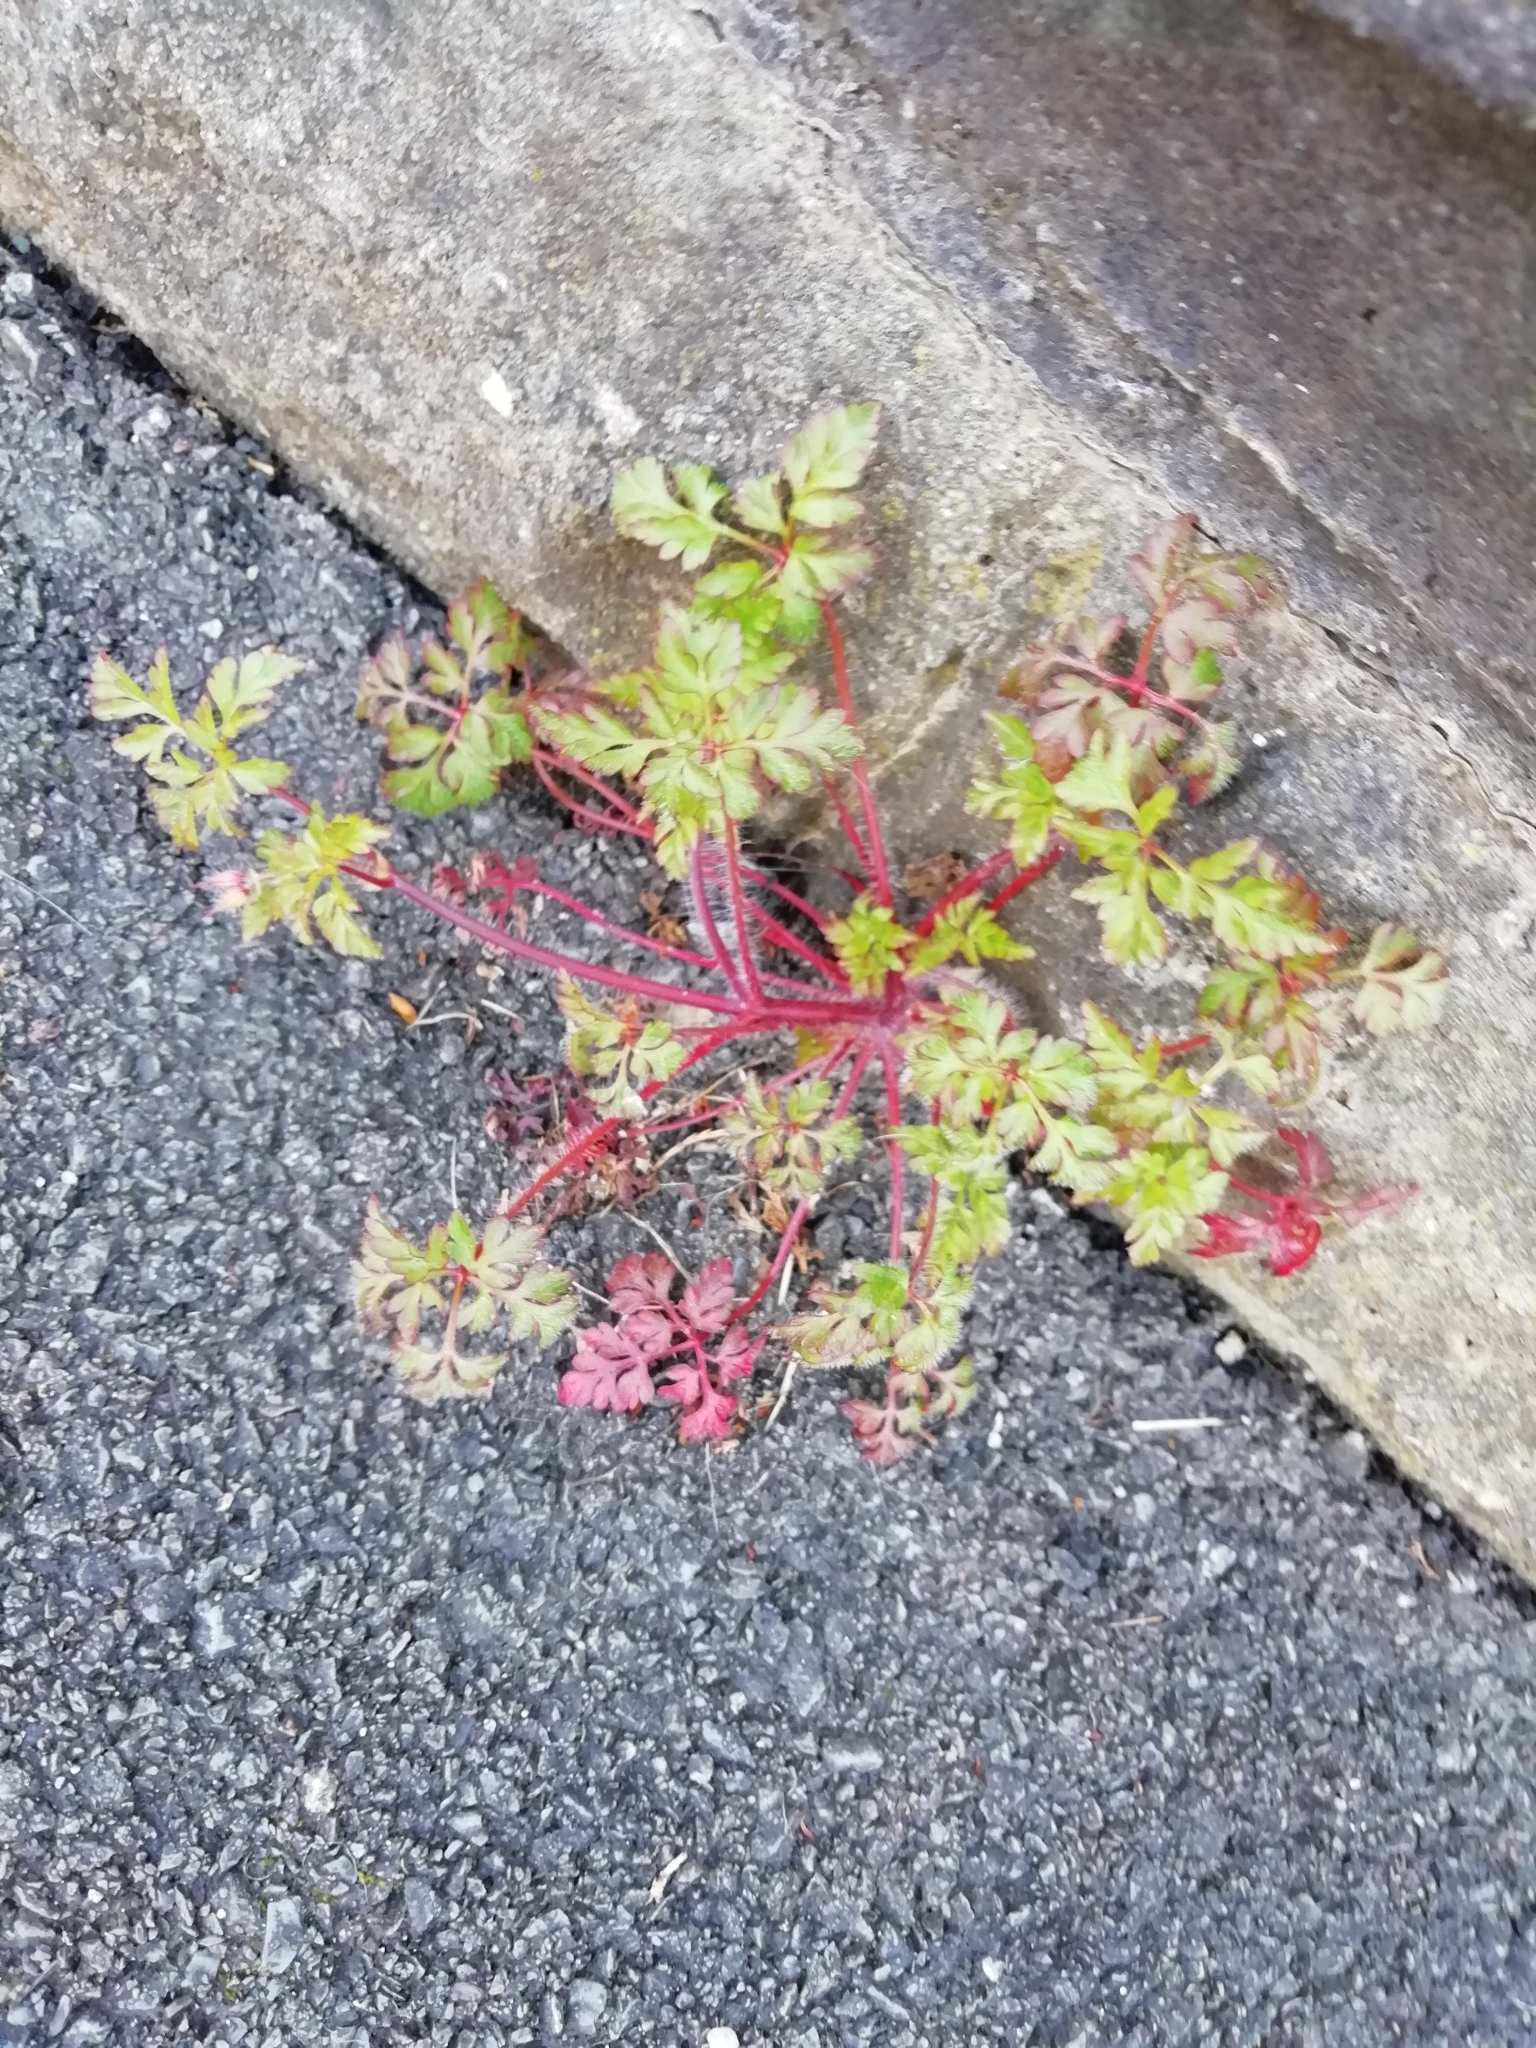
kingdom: Plantae
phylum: Tracheophyta
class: Magnoliopsida
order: Geraniales
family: Geraniaceae
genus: Geranium
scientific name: Geranium robertianum
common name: Herb-robert
